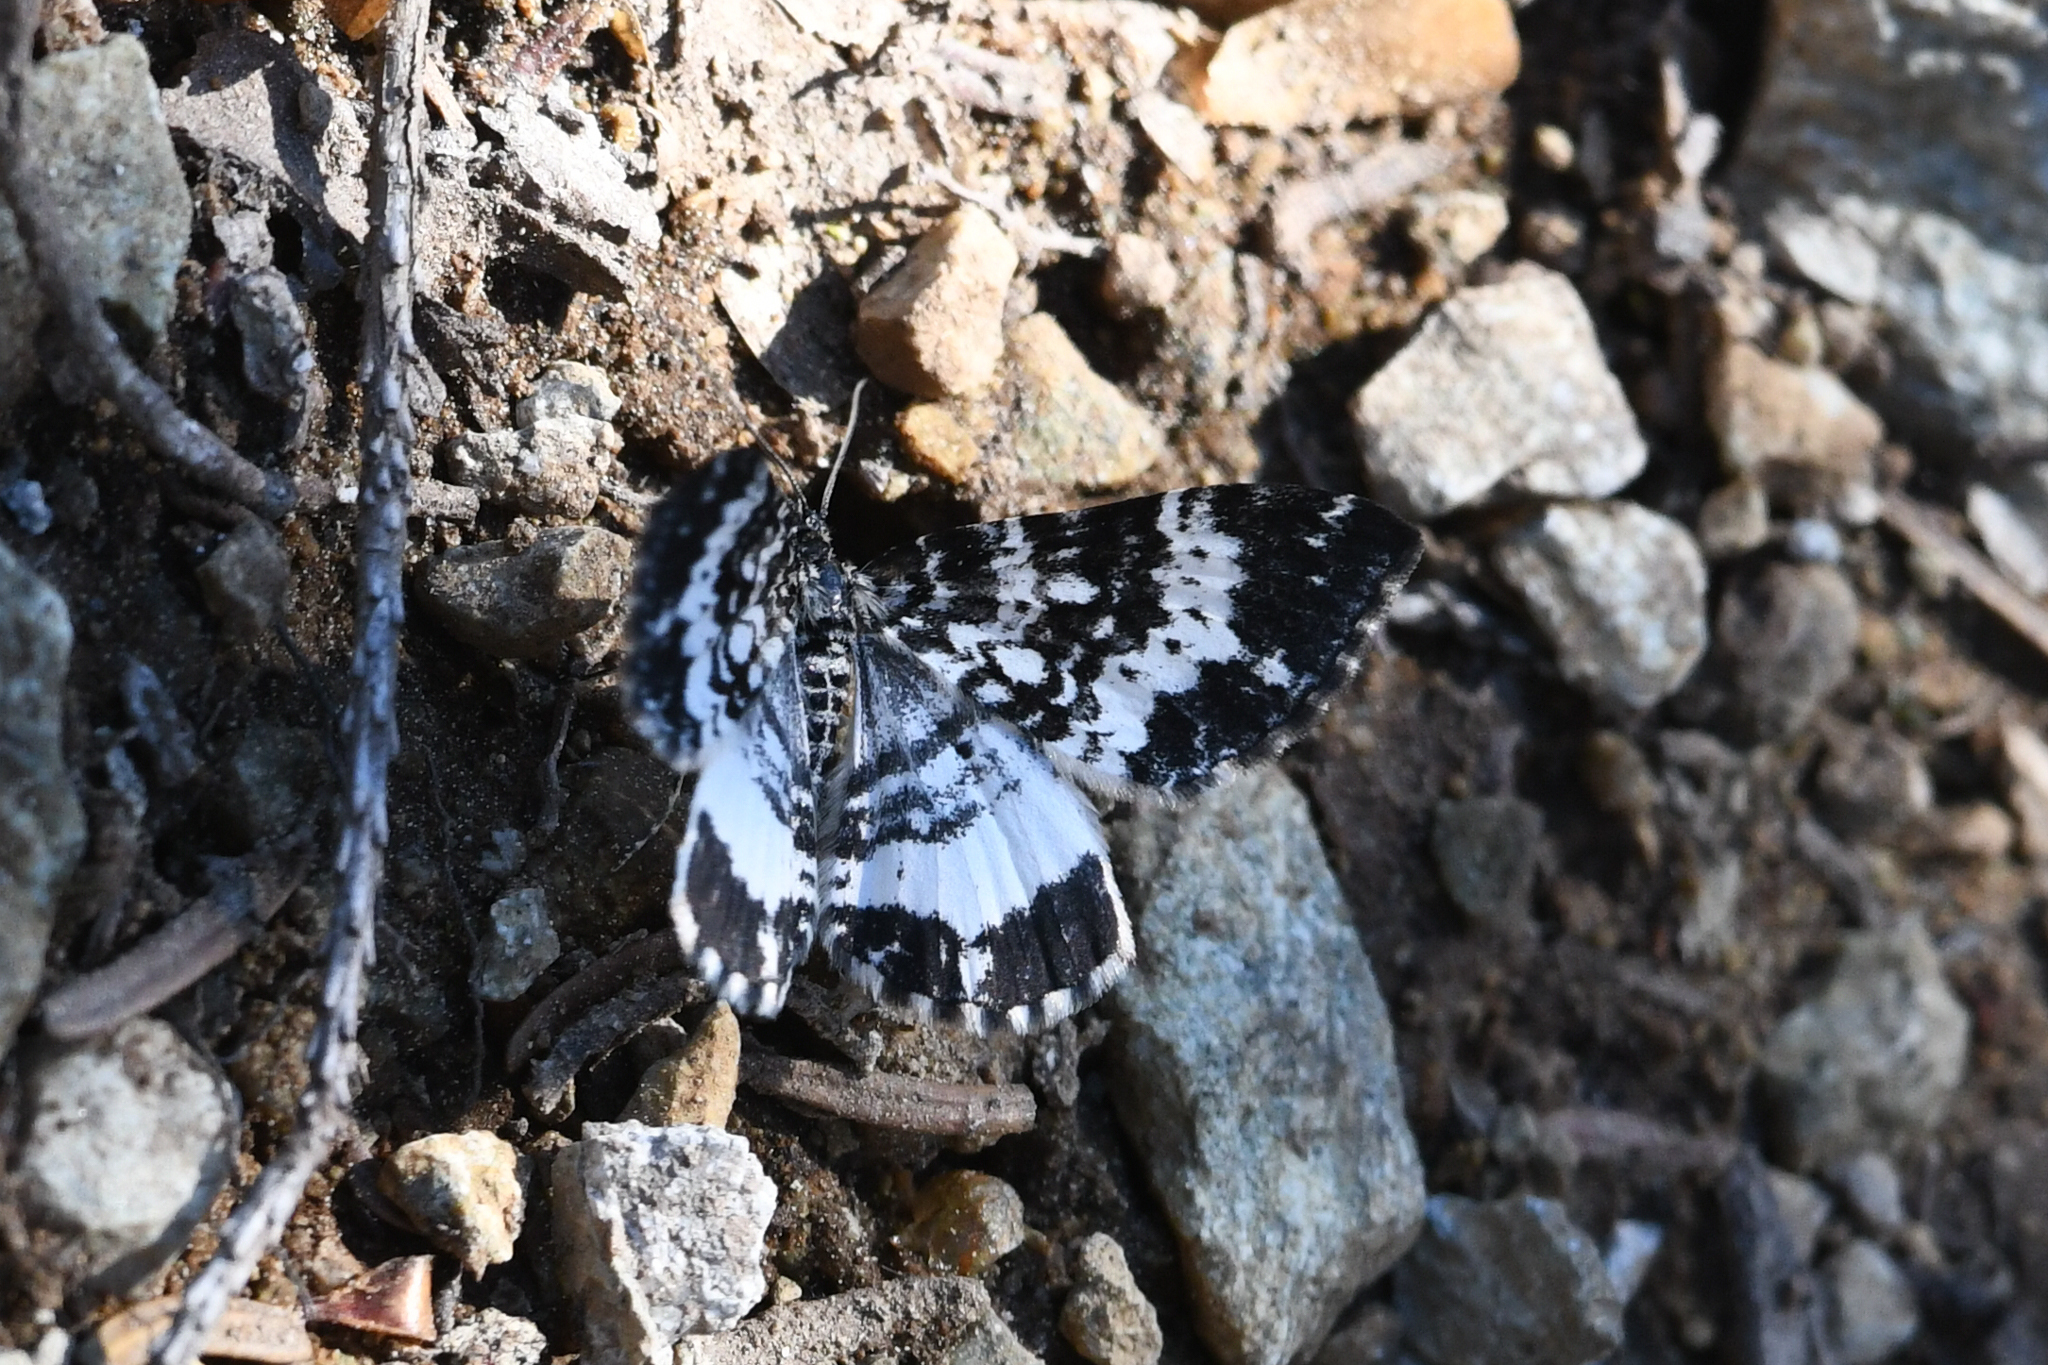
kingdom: Animalia
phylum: Arthropoda
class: Insecta
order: Lepidoptera
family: Geometridae
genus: Rheumaptera
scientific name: Rheumaptera
